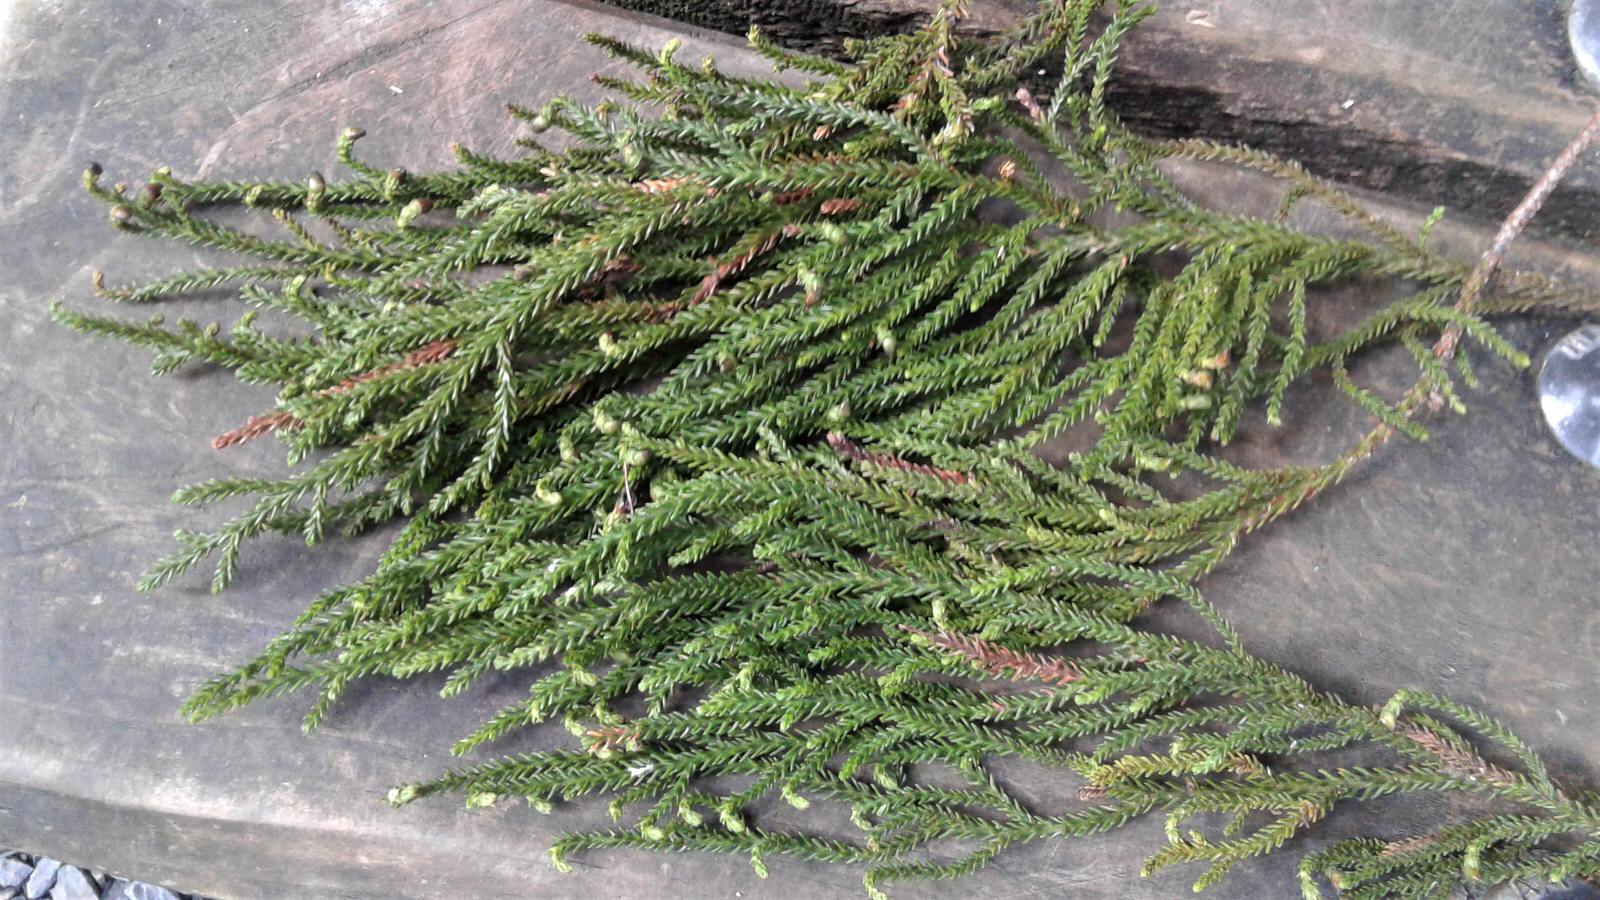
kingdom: Plantae
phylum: Tracheophyta
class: Pinopsida
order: Pinales
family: Podocarpaceae
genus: Dacrydium
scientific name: Dacrydium cupressinum
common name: Red pine
